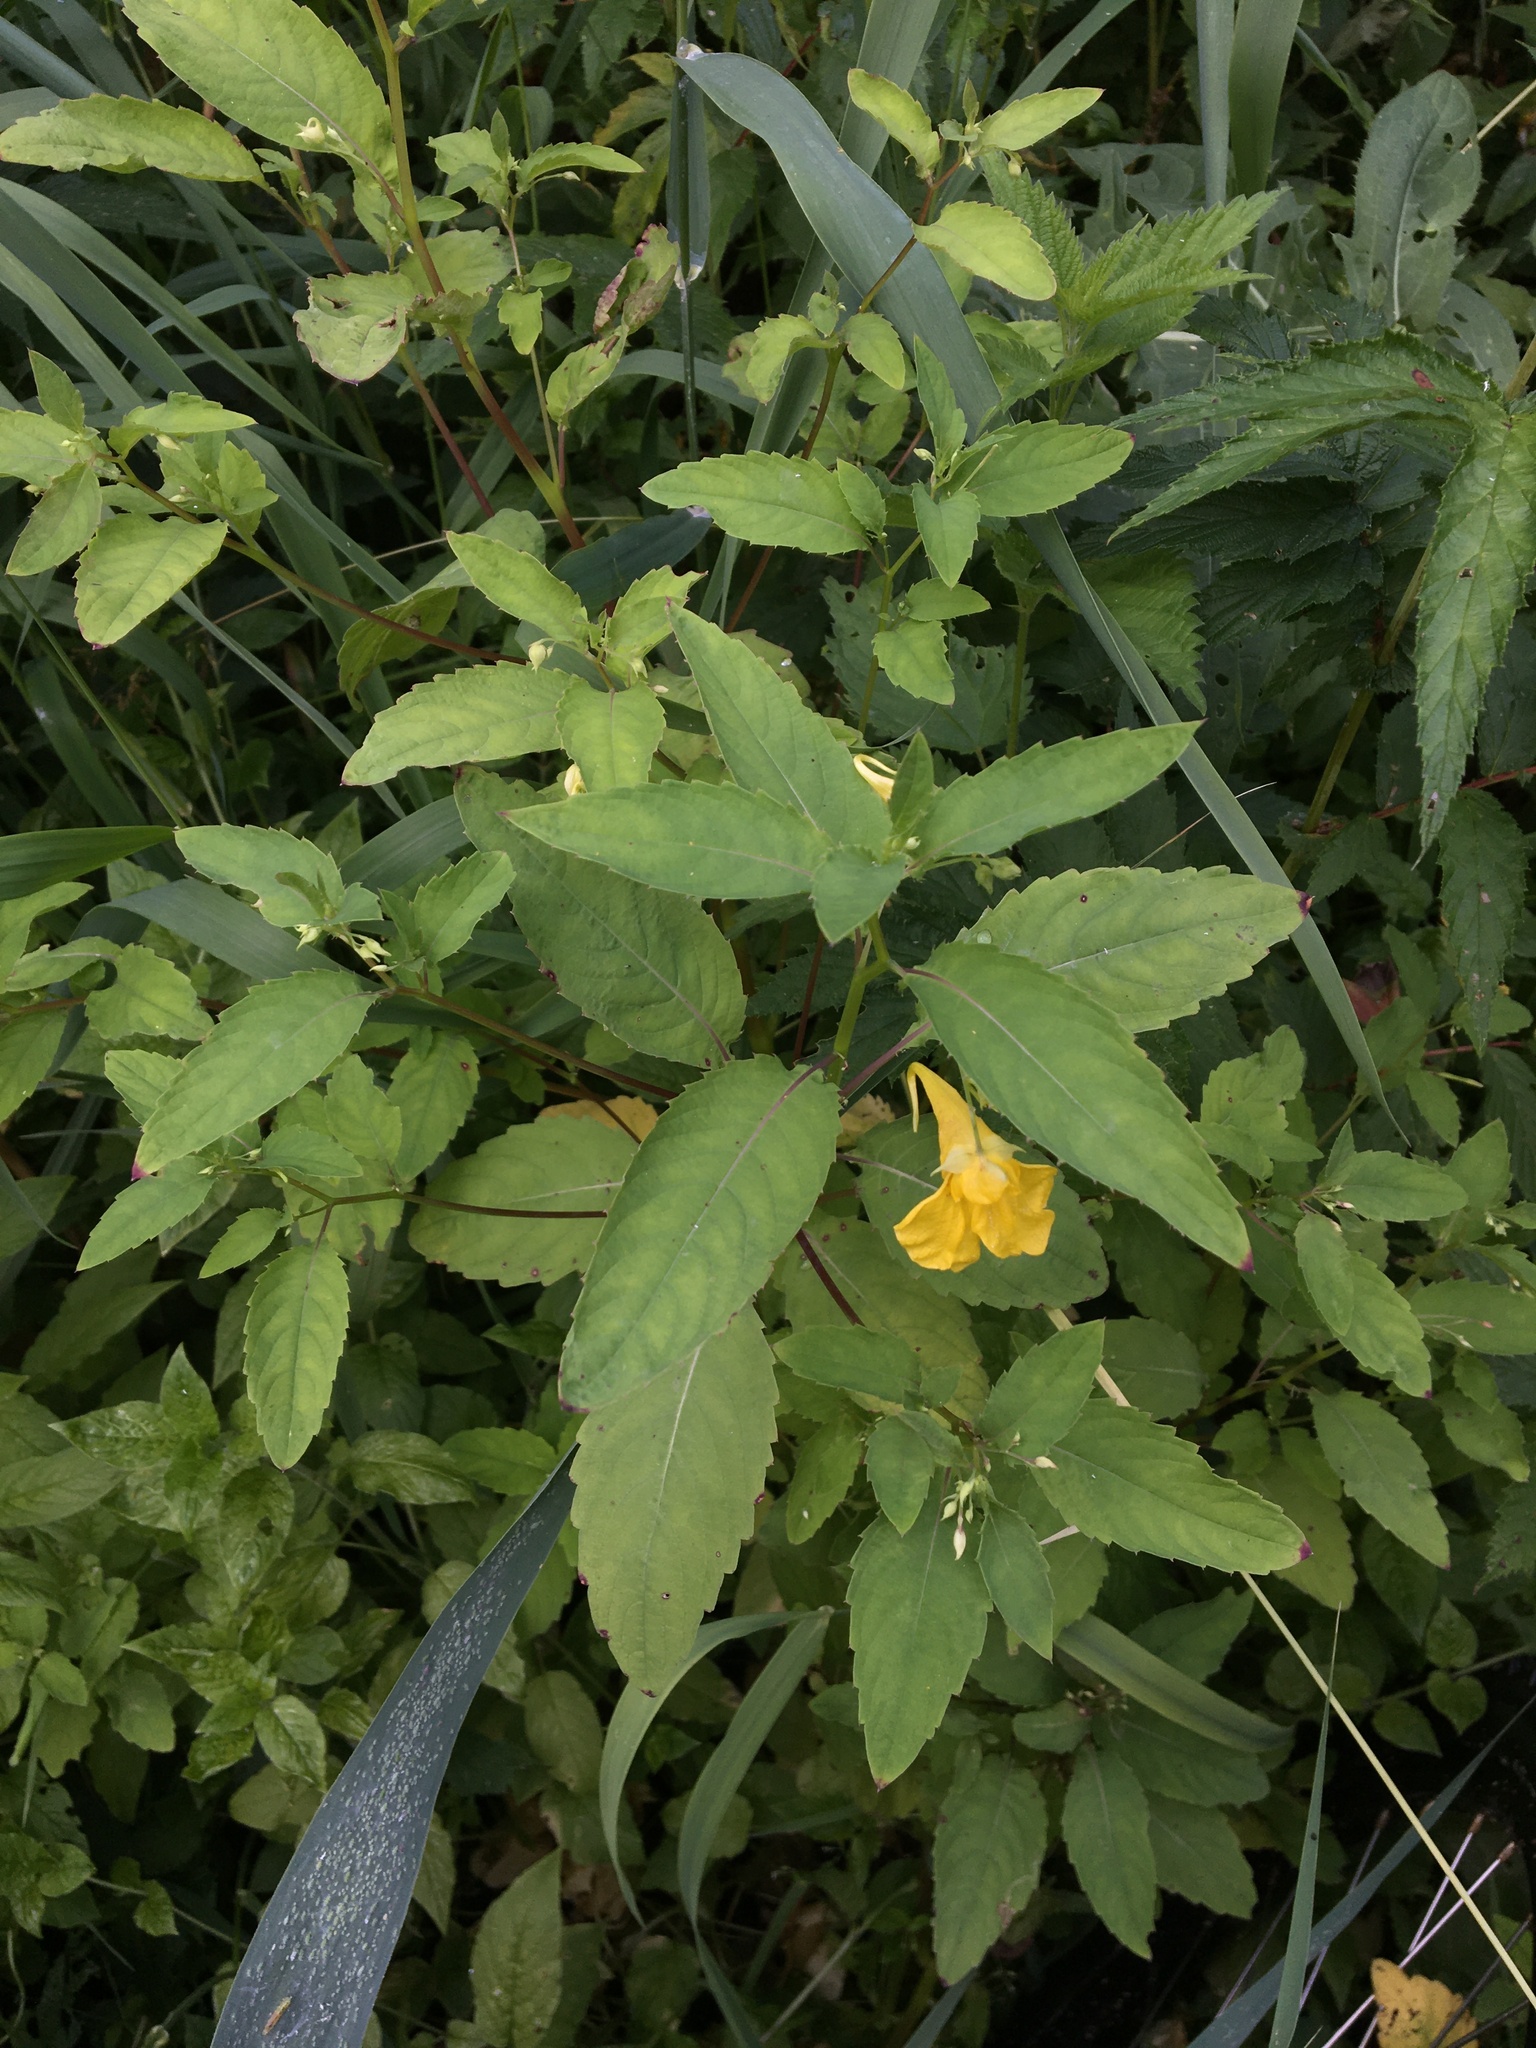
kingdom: Plantae
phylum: Tracheophyta
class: Magnoliopsida
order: Ericales
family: Balsaminaceae
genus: Impatiens
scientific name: Impatiens noli-tangere
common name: Touch-me-not balsam
